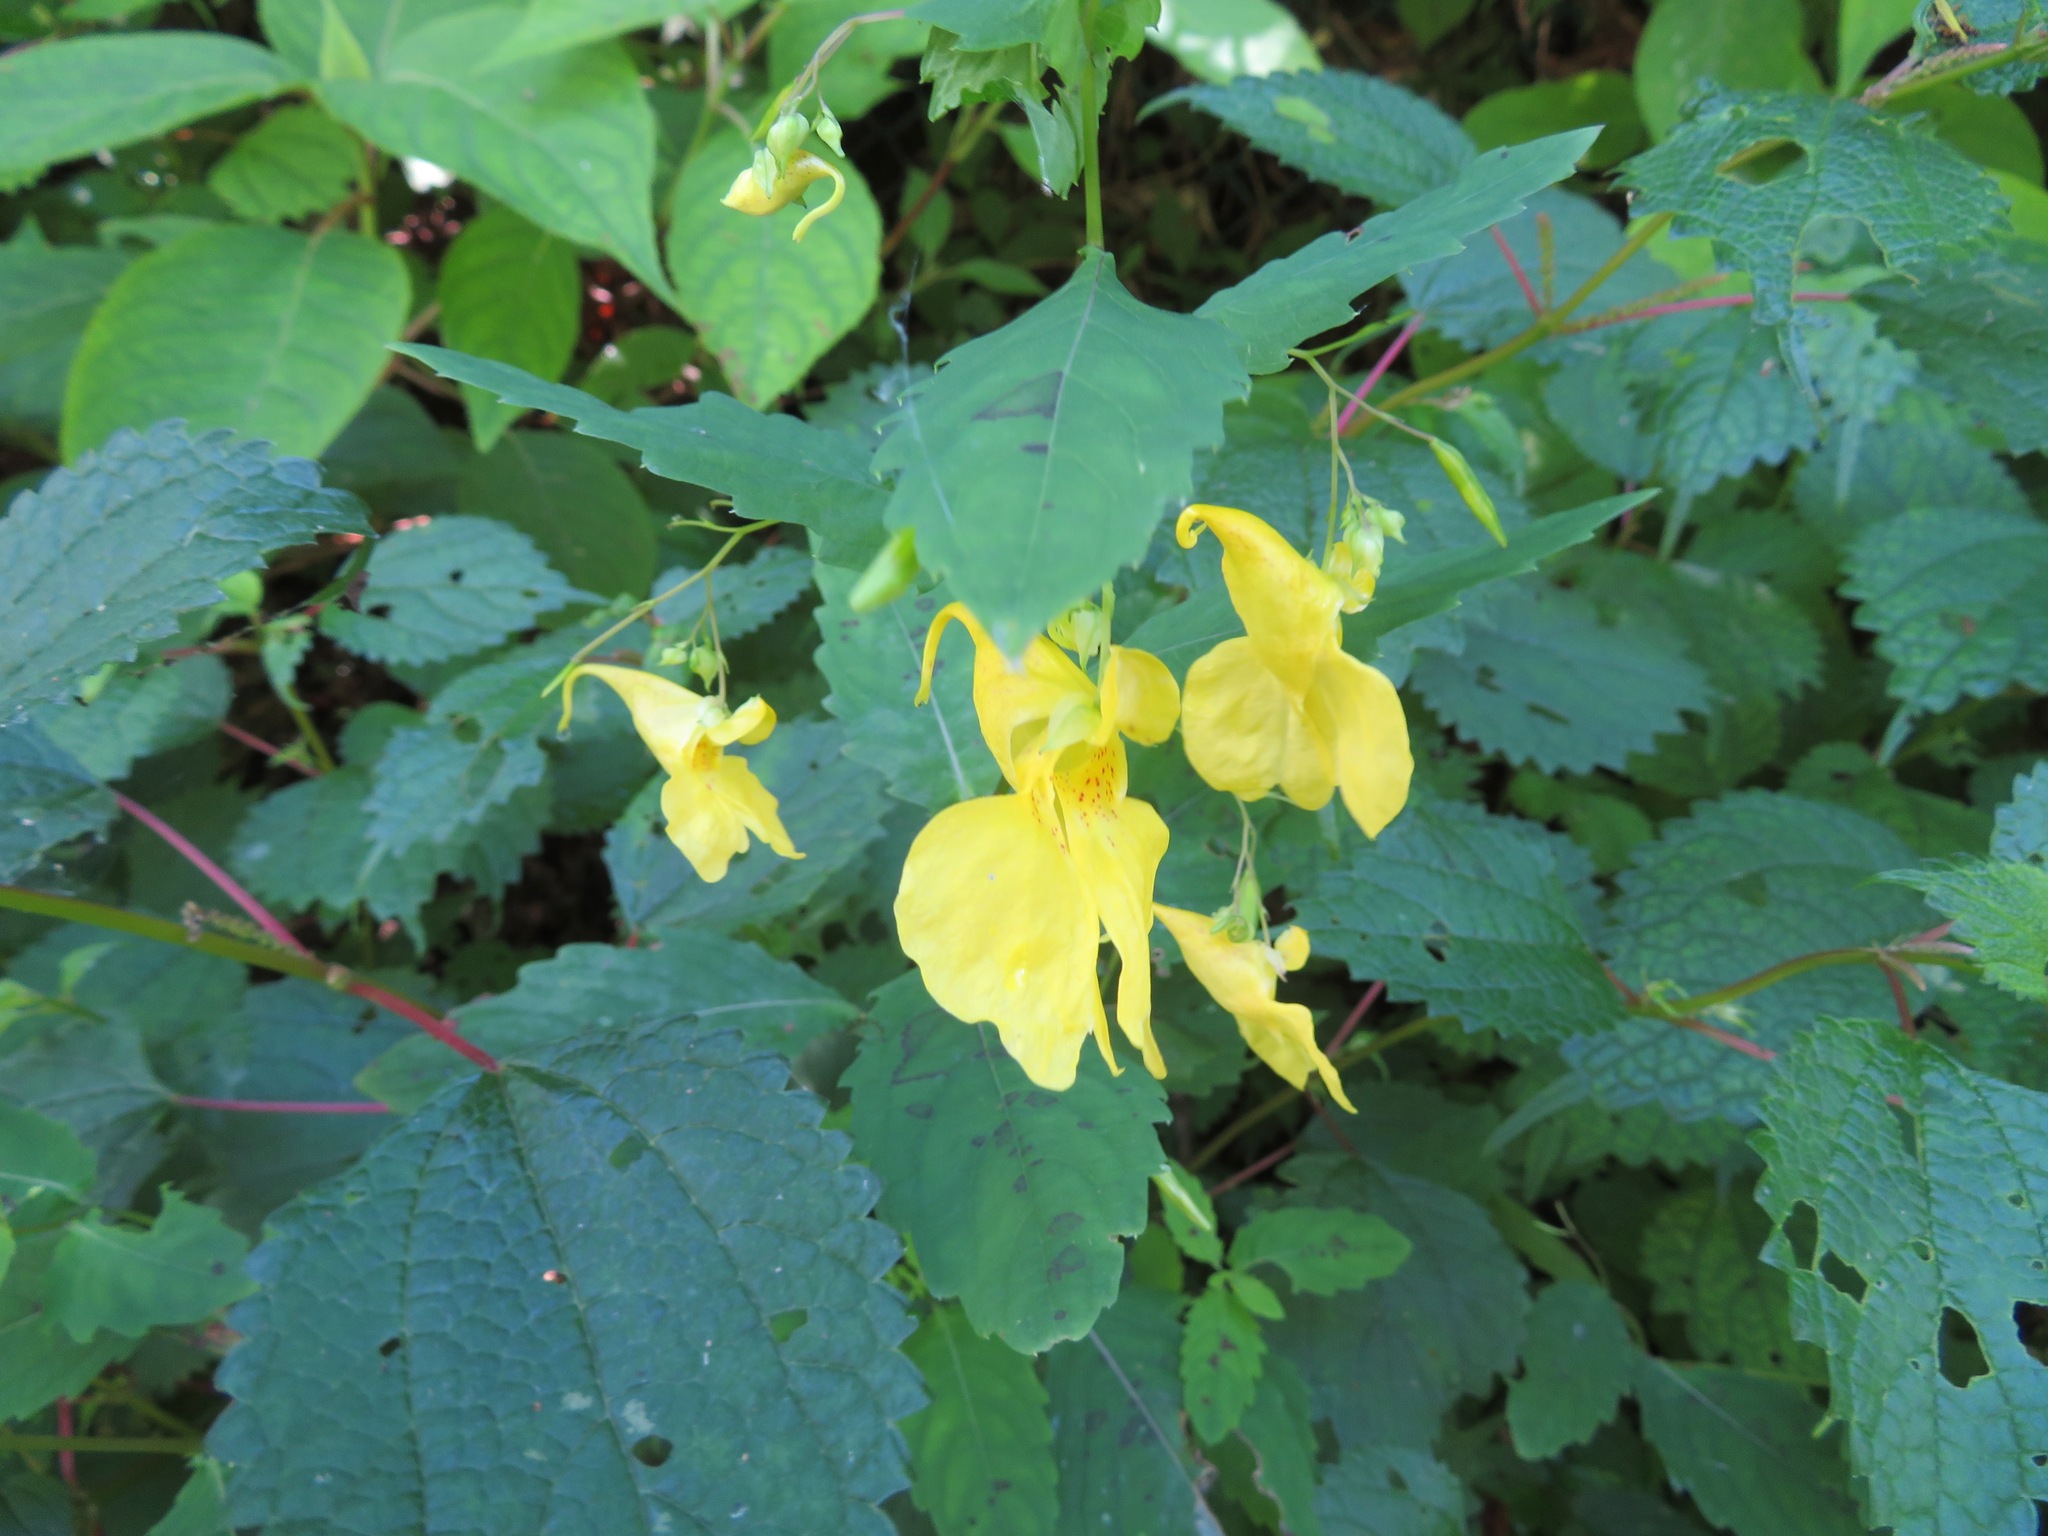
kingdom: Plantae
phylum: Tracheophyta
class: Magnoliopsida
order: Ericales
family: Balsaminaceae
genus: Impatiens
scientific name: Impatiens noli-tangere
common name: Touch-me-not balsam
